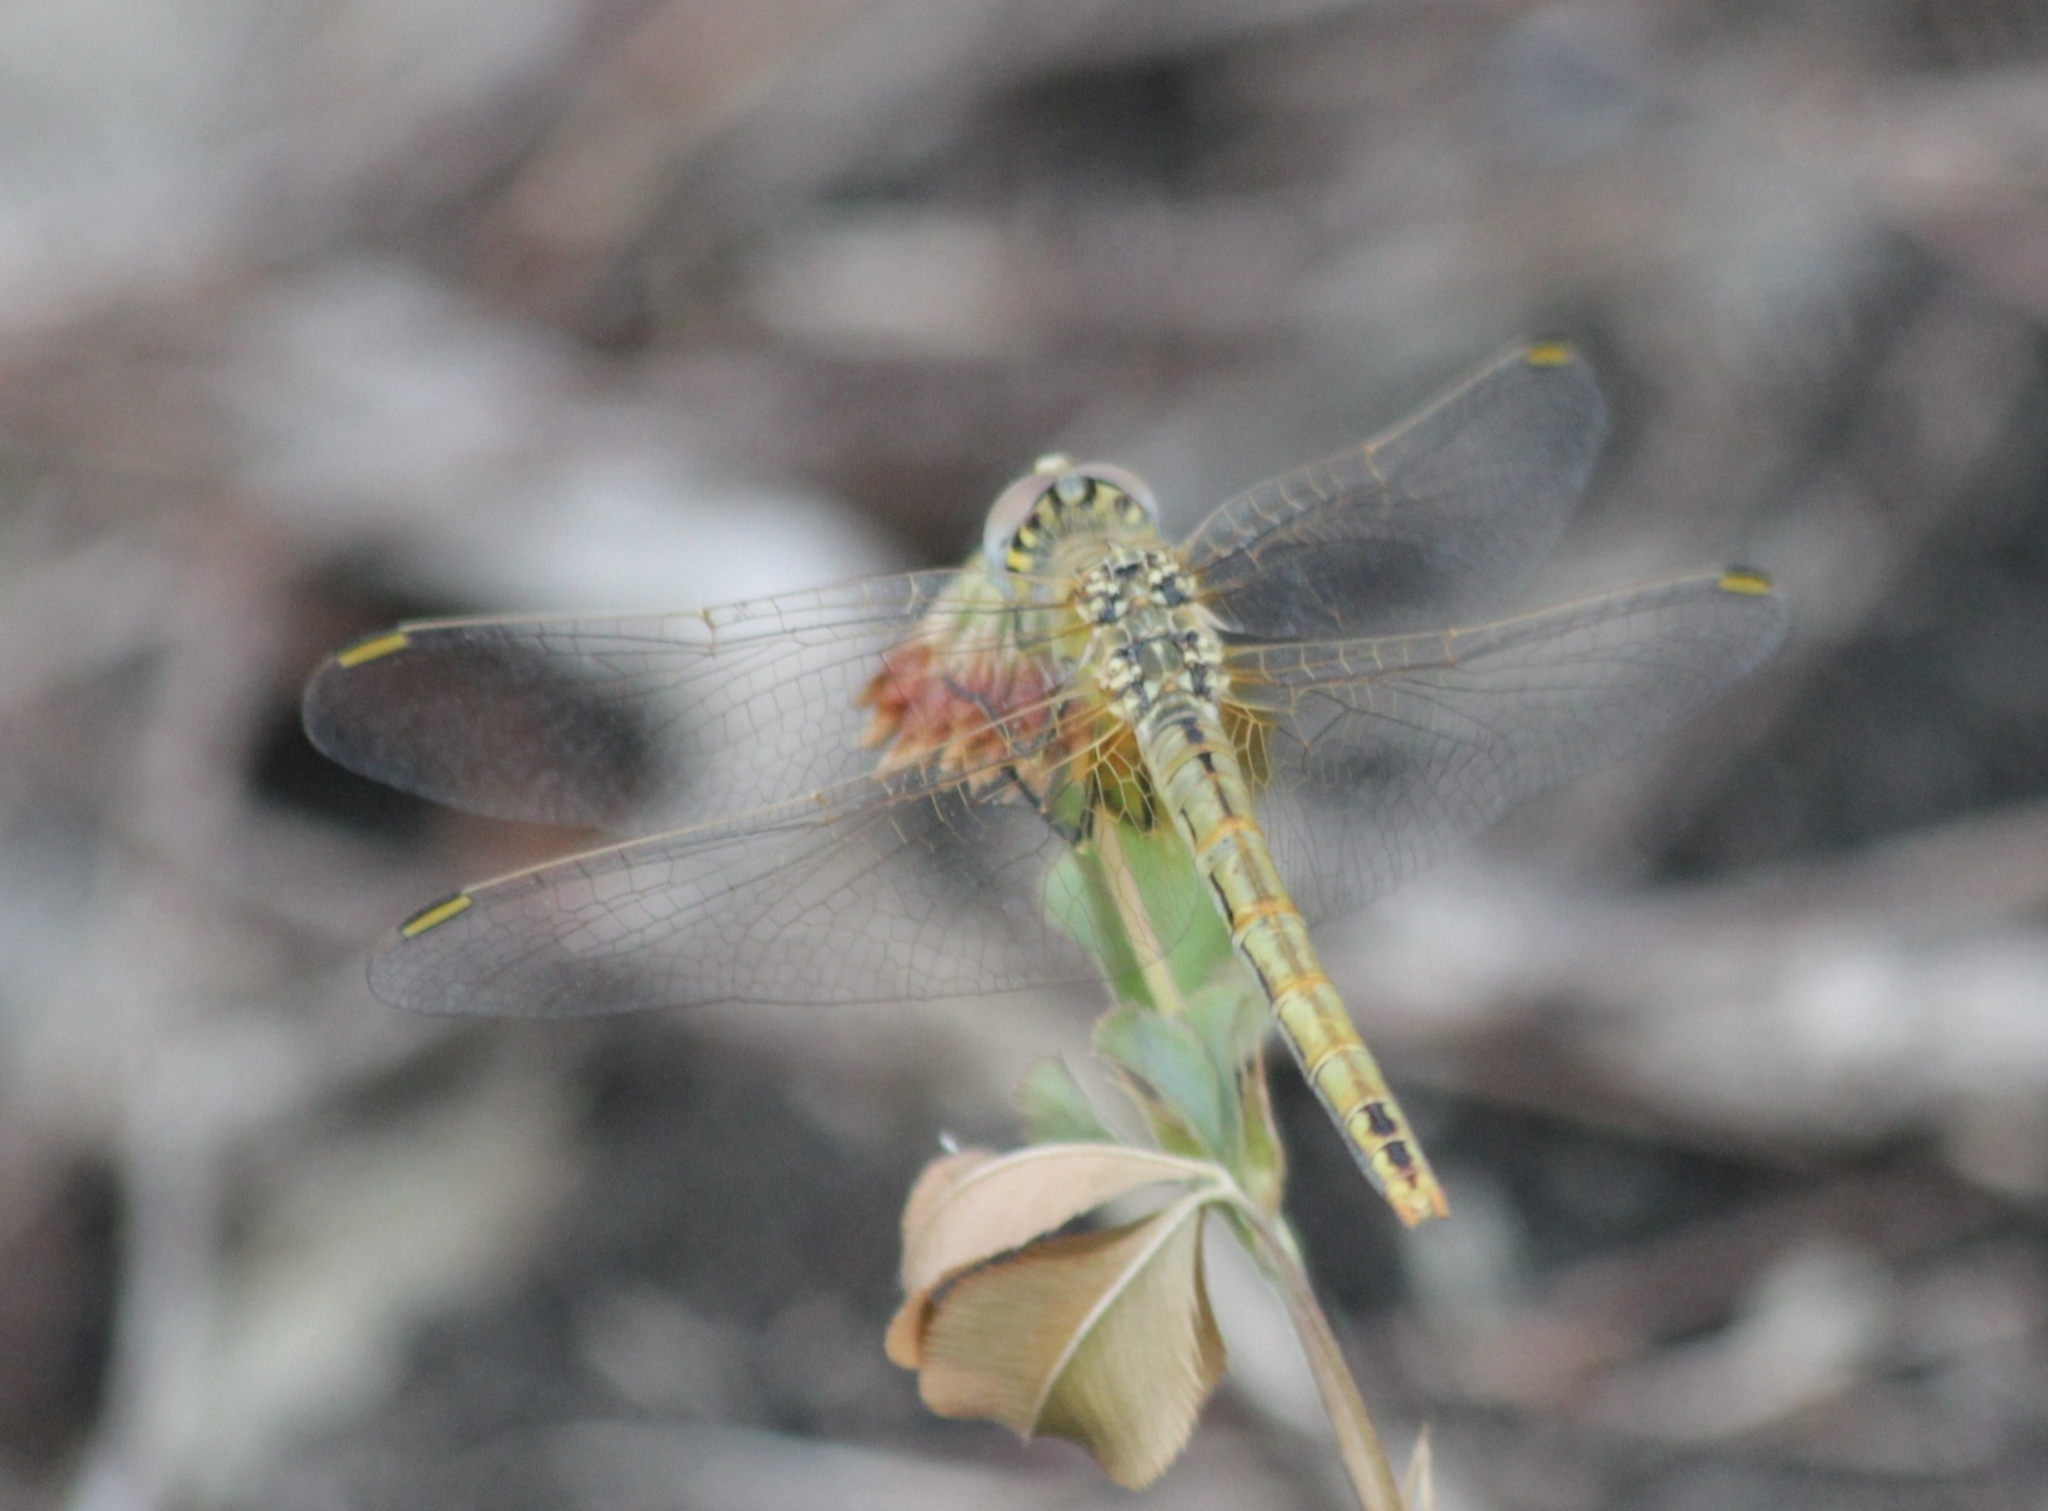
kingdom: Animalia
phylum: Arthropoda
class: Insecta
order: Odonata
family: Libellulidae
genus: Sympetrum
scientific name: Sympetrum fonscolombii
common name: Red-veined darter
